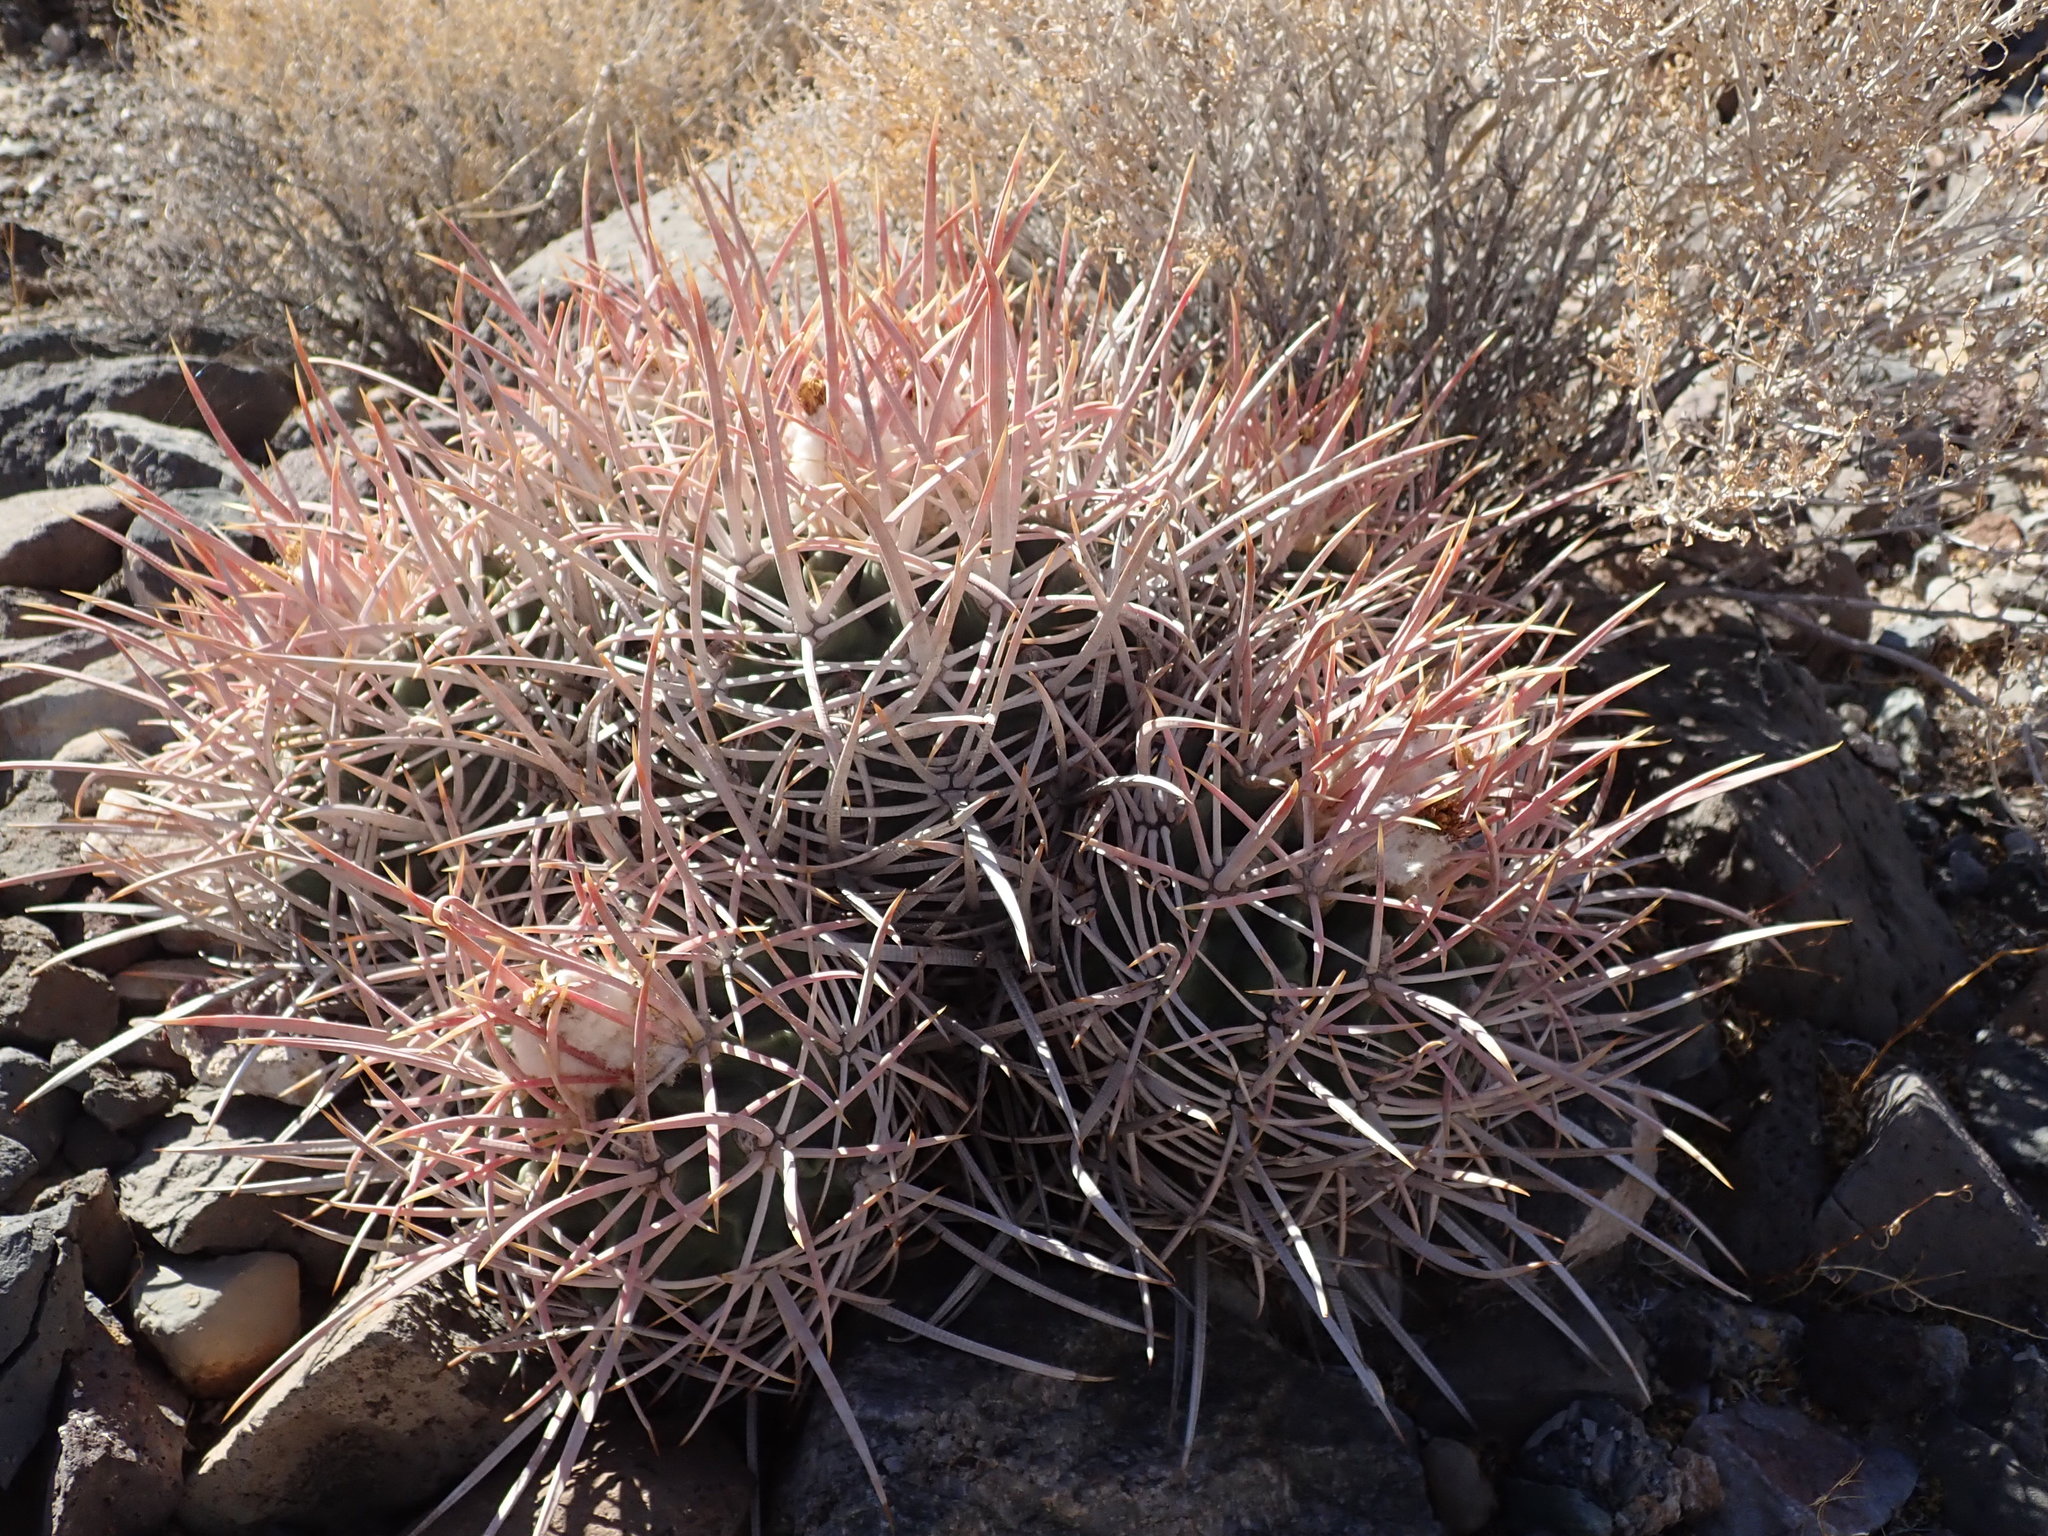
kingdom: Plantae
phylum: Tracheophyta
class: Magnoliopsida
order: Caryophyllales
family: Cactaceae
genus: Echinocactus
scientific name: Echinocactus polycephalus
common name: Cottontop cactus
